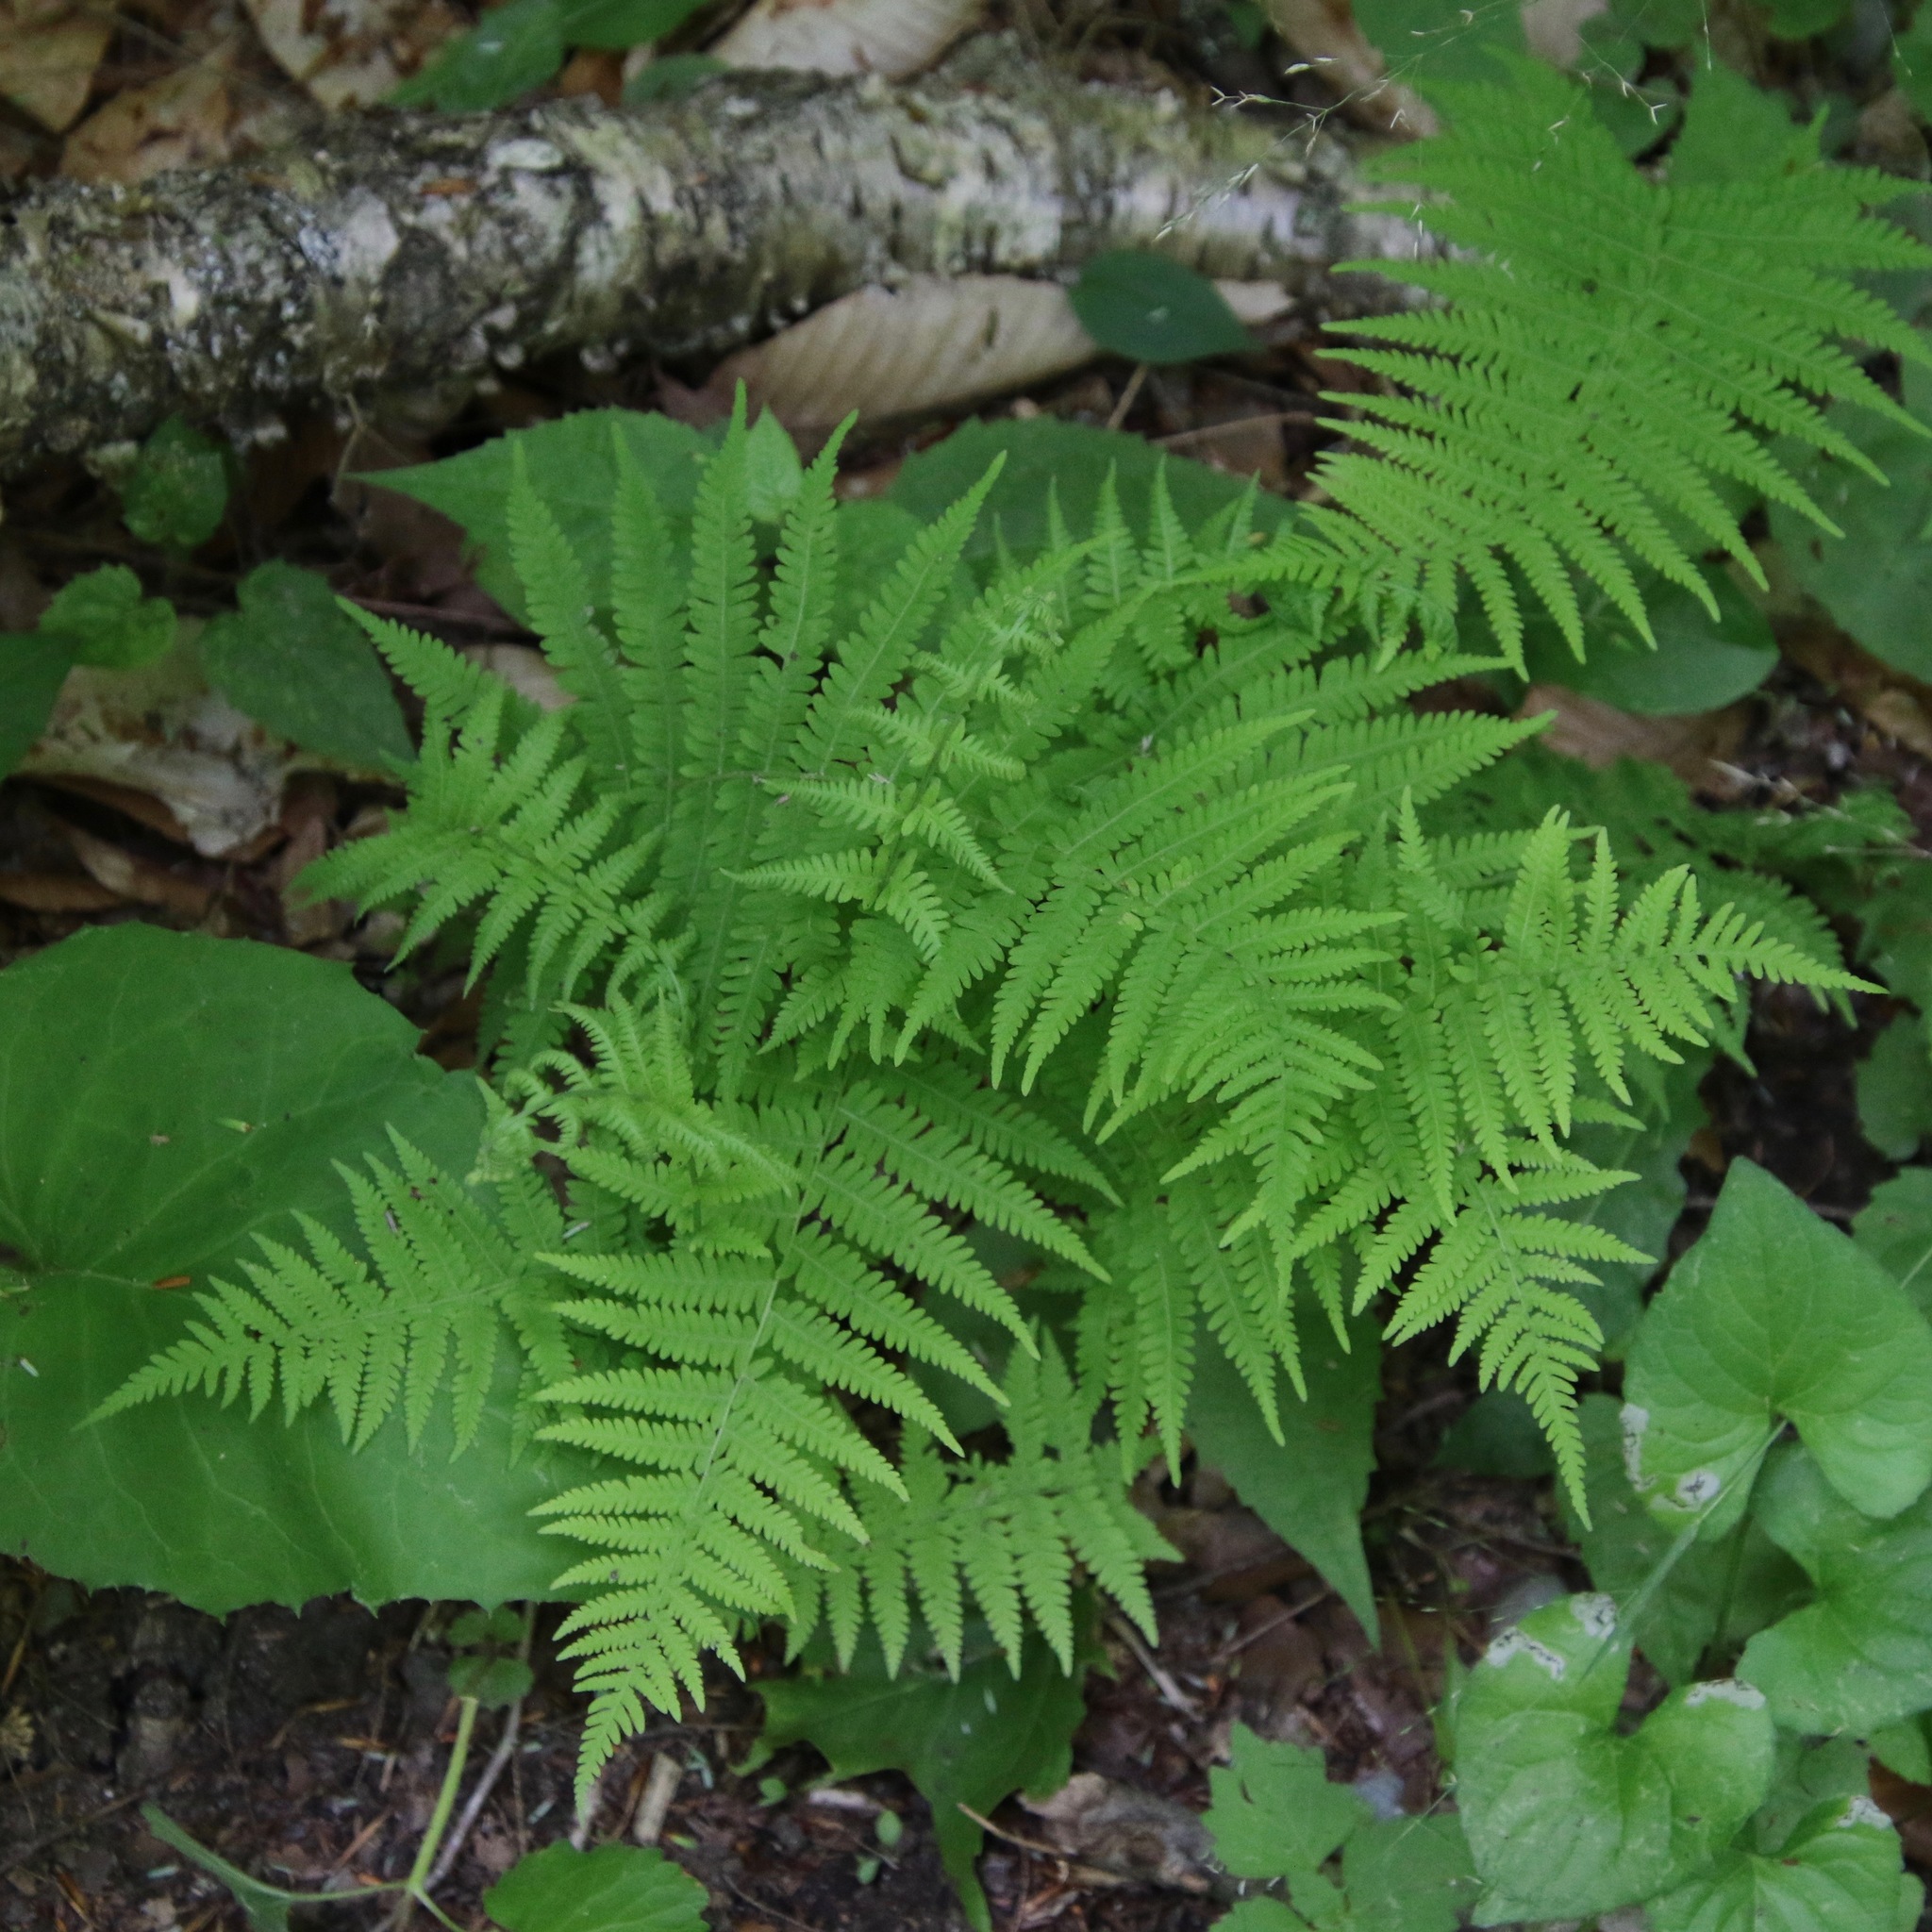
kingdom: Plantae
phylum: Tracheophyta
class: Polypodiopsida
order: Polypodiales
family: Thelypteridaceae
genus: Amauropelta
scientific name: Amauropelta noveboracensis
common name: New york fern
